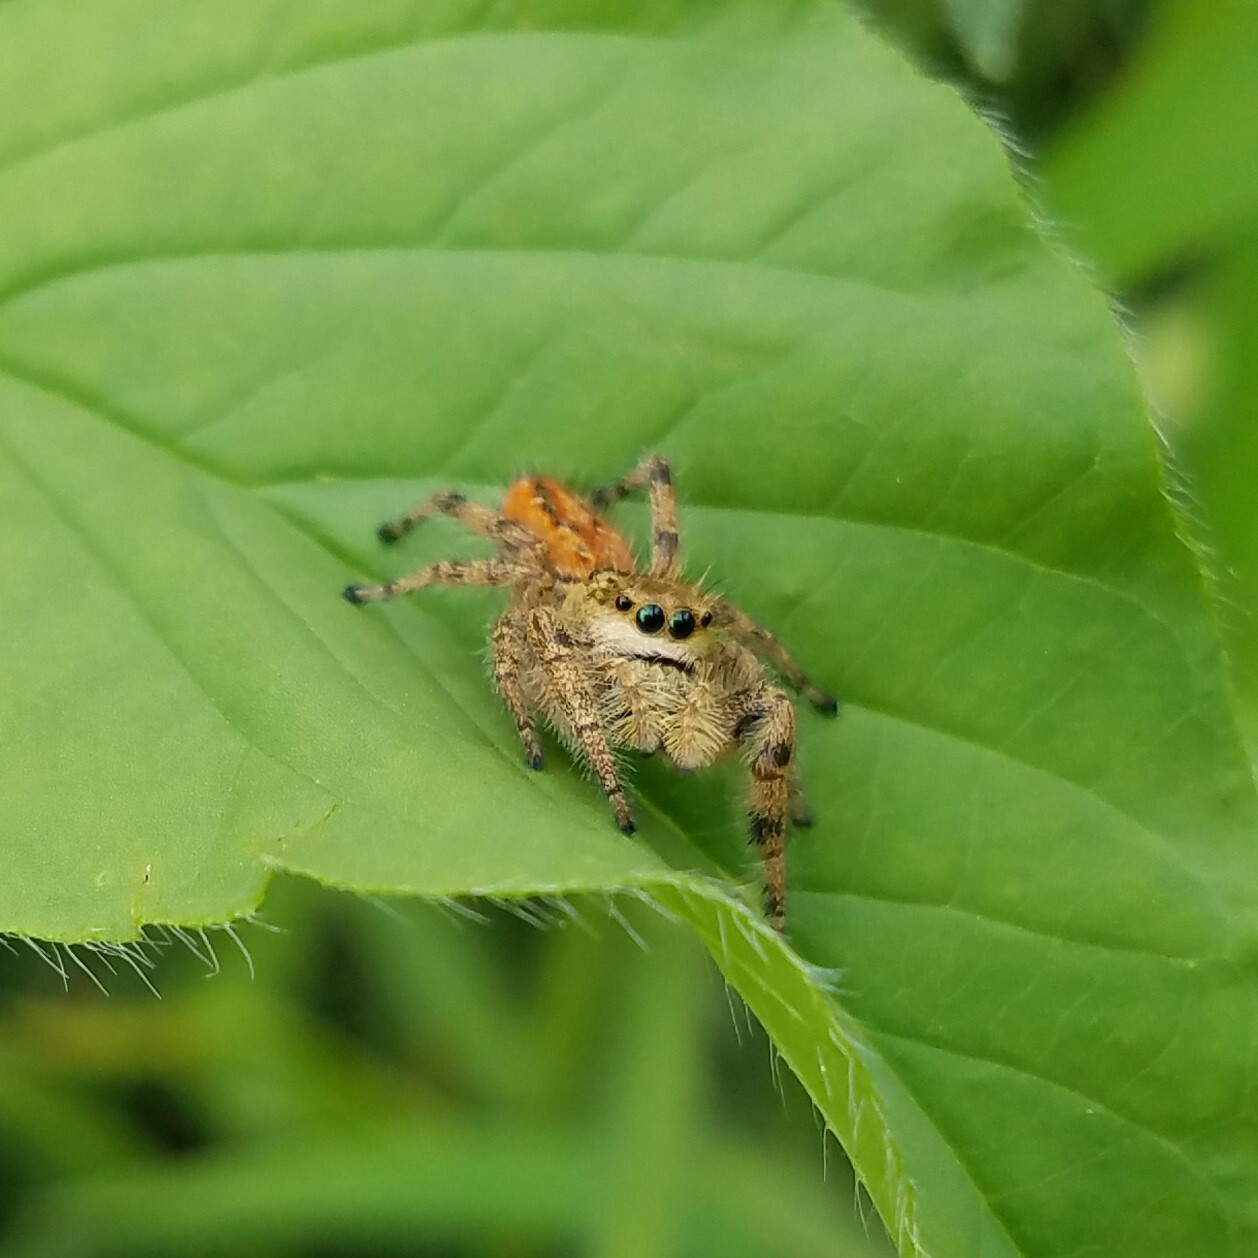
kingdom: Animalia
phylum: Arthropoda
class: Arachnida
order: Araneae
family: Salticidae
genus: Phidippus
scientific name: Phidippus clarus
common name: Brilliant jumping spider
